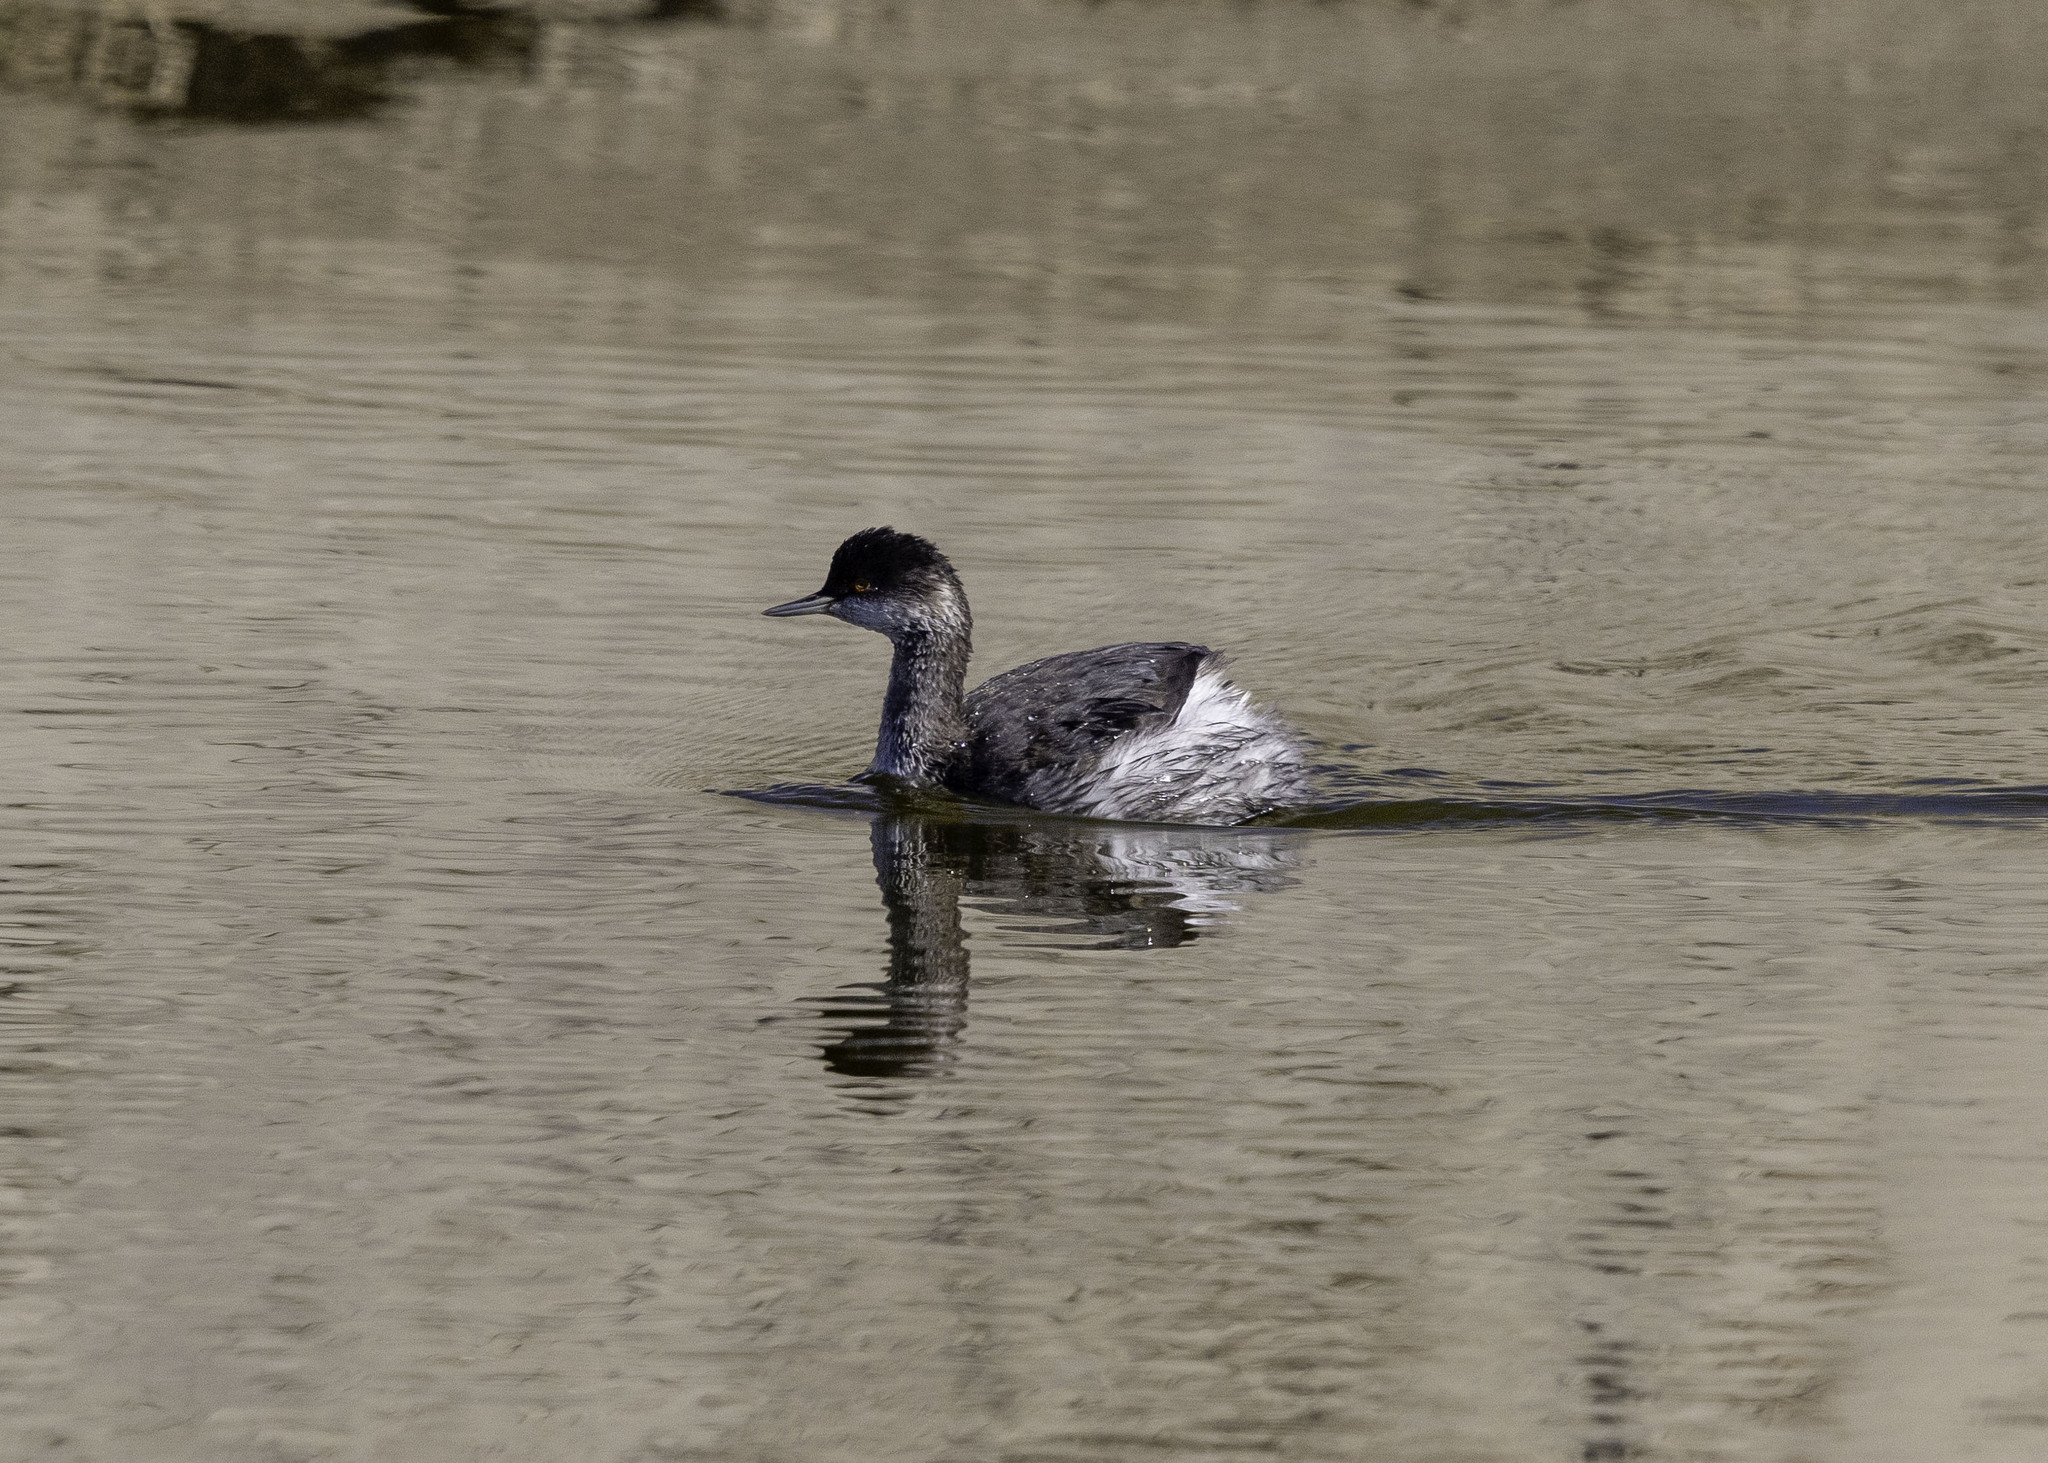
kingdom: Animalia
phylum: Chordata
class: Aves
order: Podicipediformes
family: Podicipedidae
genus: Podiceps
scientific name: Podiceps nigricollis
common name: Black-necked grebe
